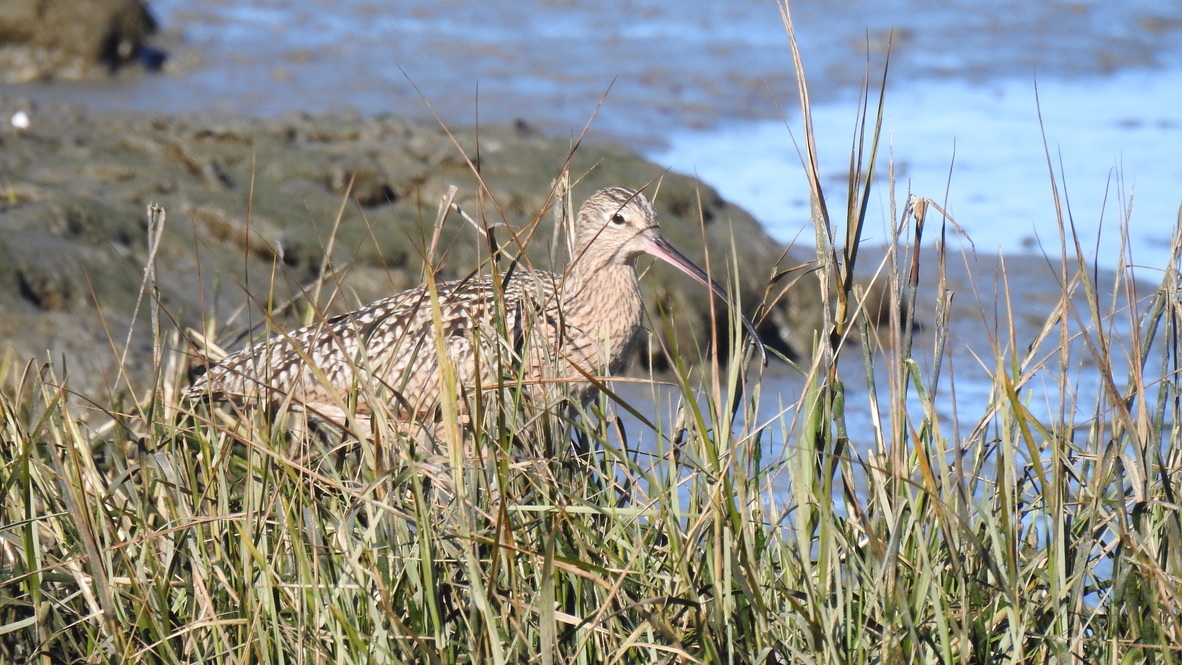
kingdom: Animalia
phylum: Chordata
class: Aves
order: Charadriiformes
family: Scolopacidae
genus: Numenius
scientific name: Numenius americanus
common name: Long-billed curlew
